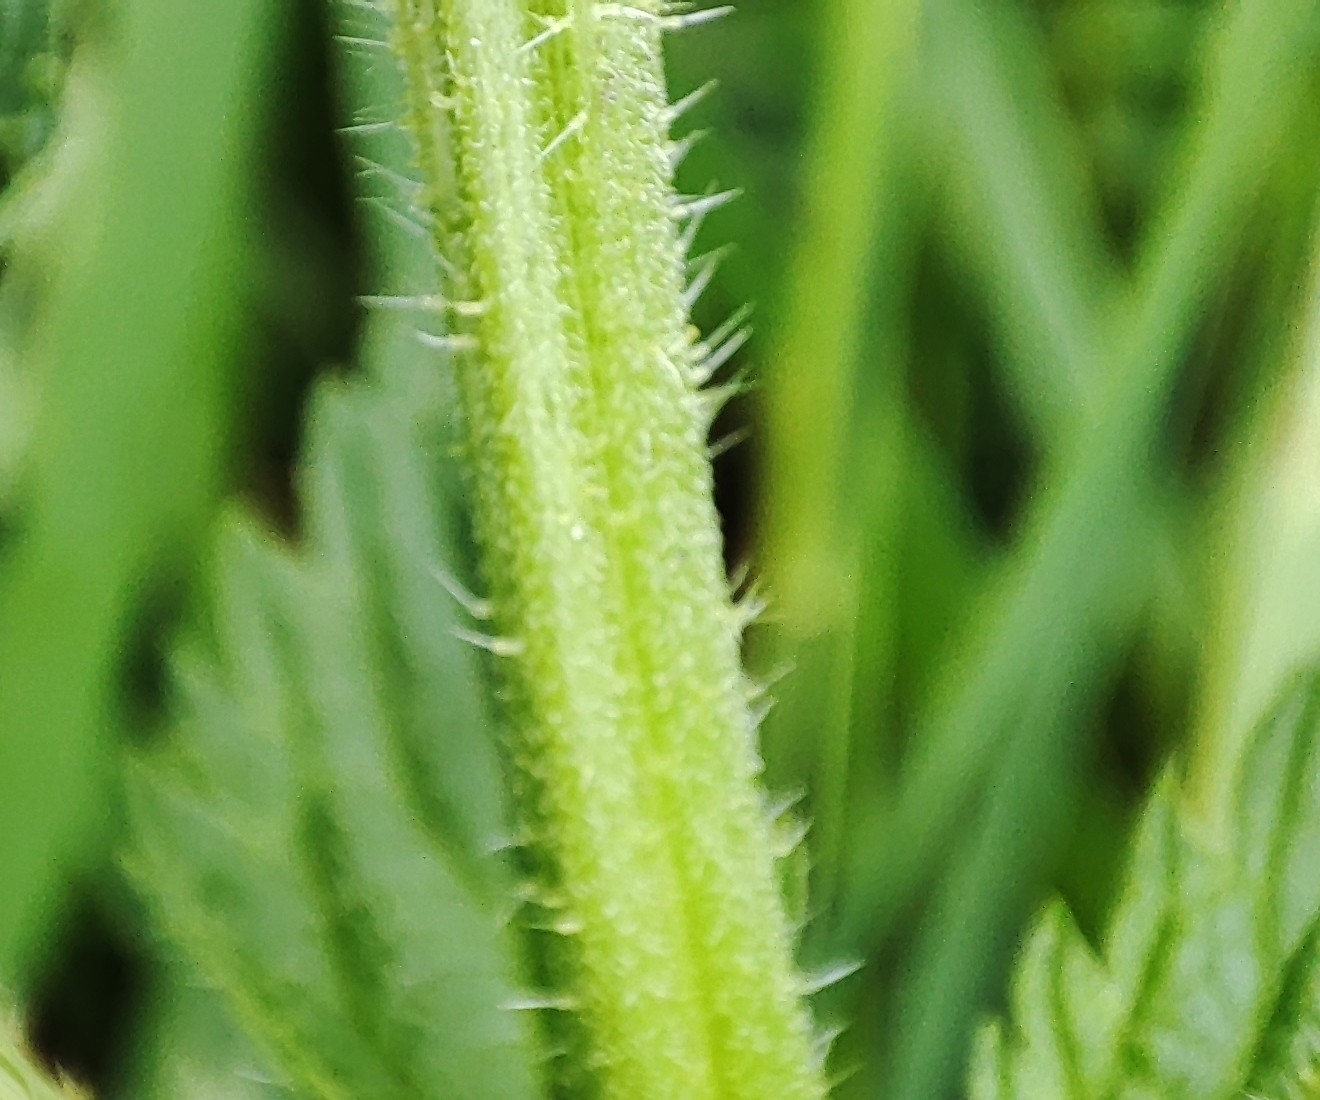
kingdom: Plantae
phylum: Tracheophyta
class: Magnoliopsida
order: Rosales
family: Urticaceae
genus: Urtica
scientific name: Urtica dioica
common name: Common nettle
